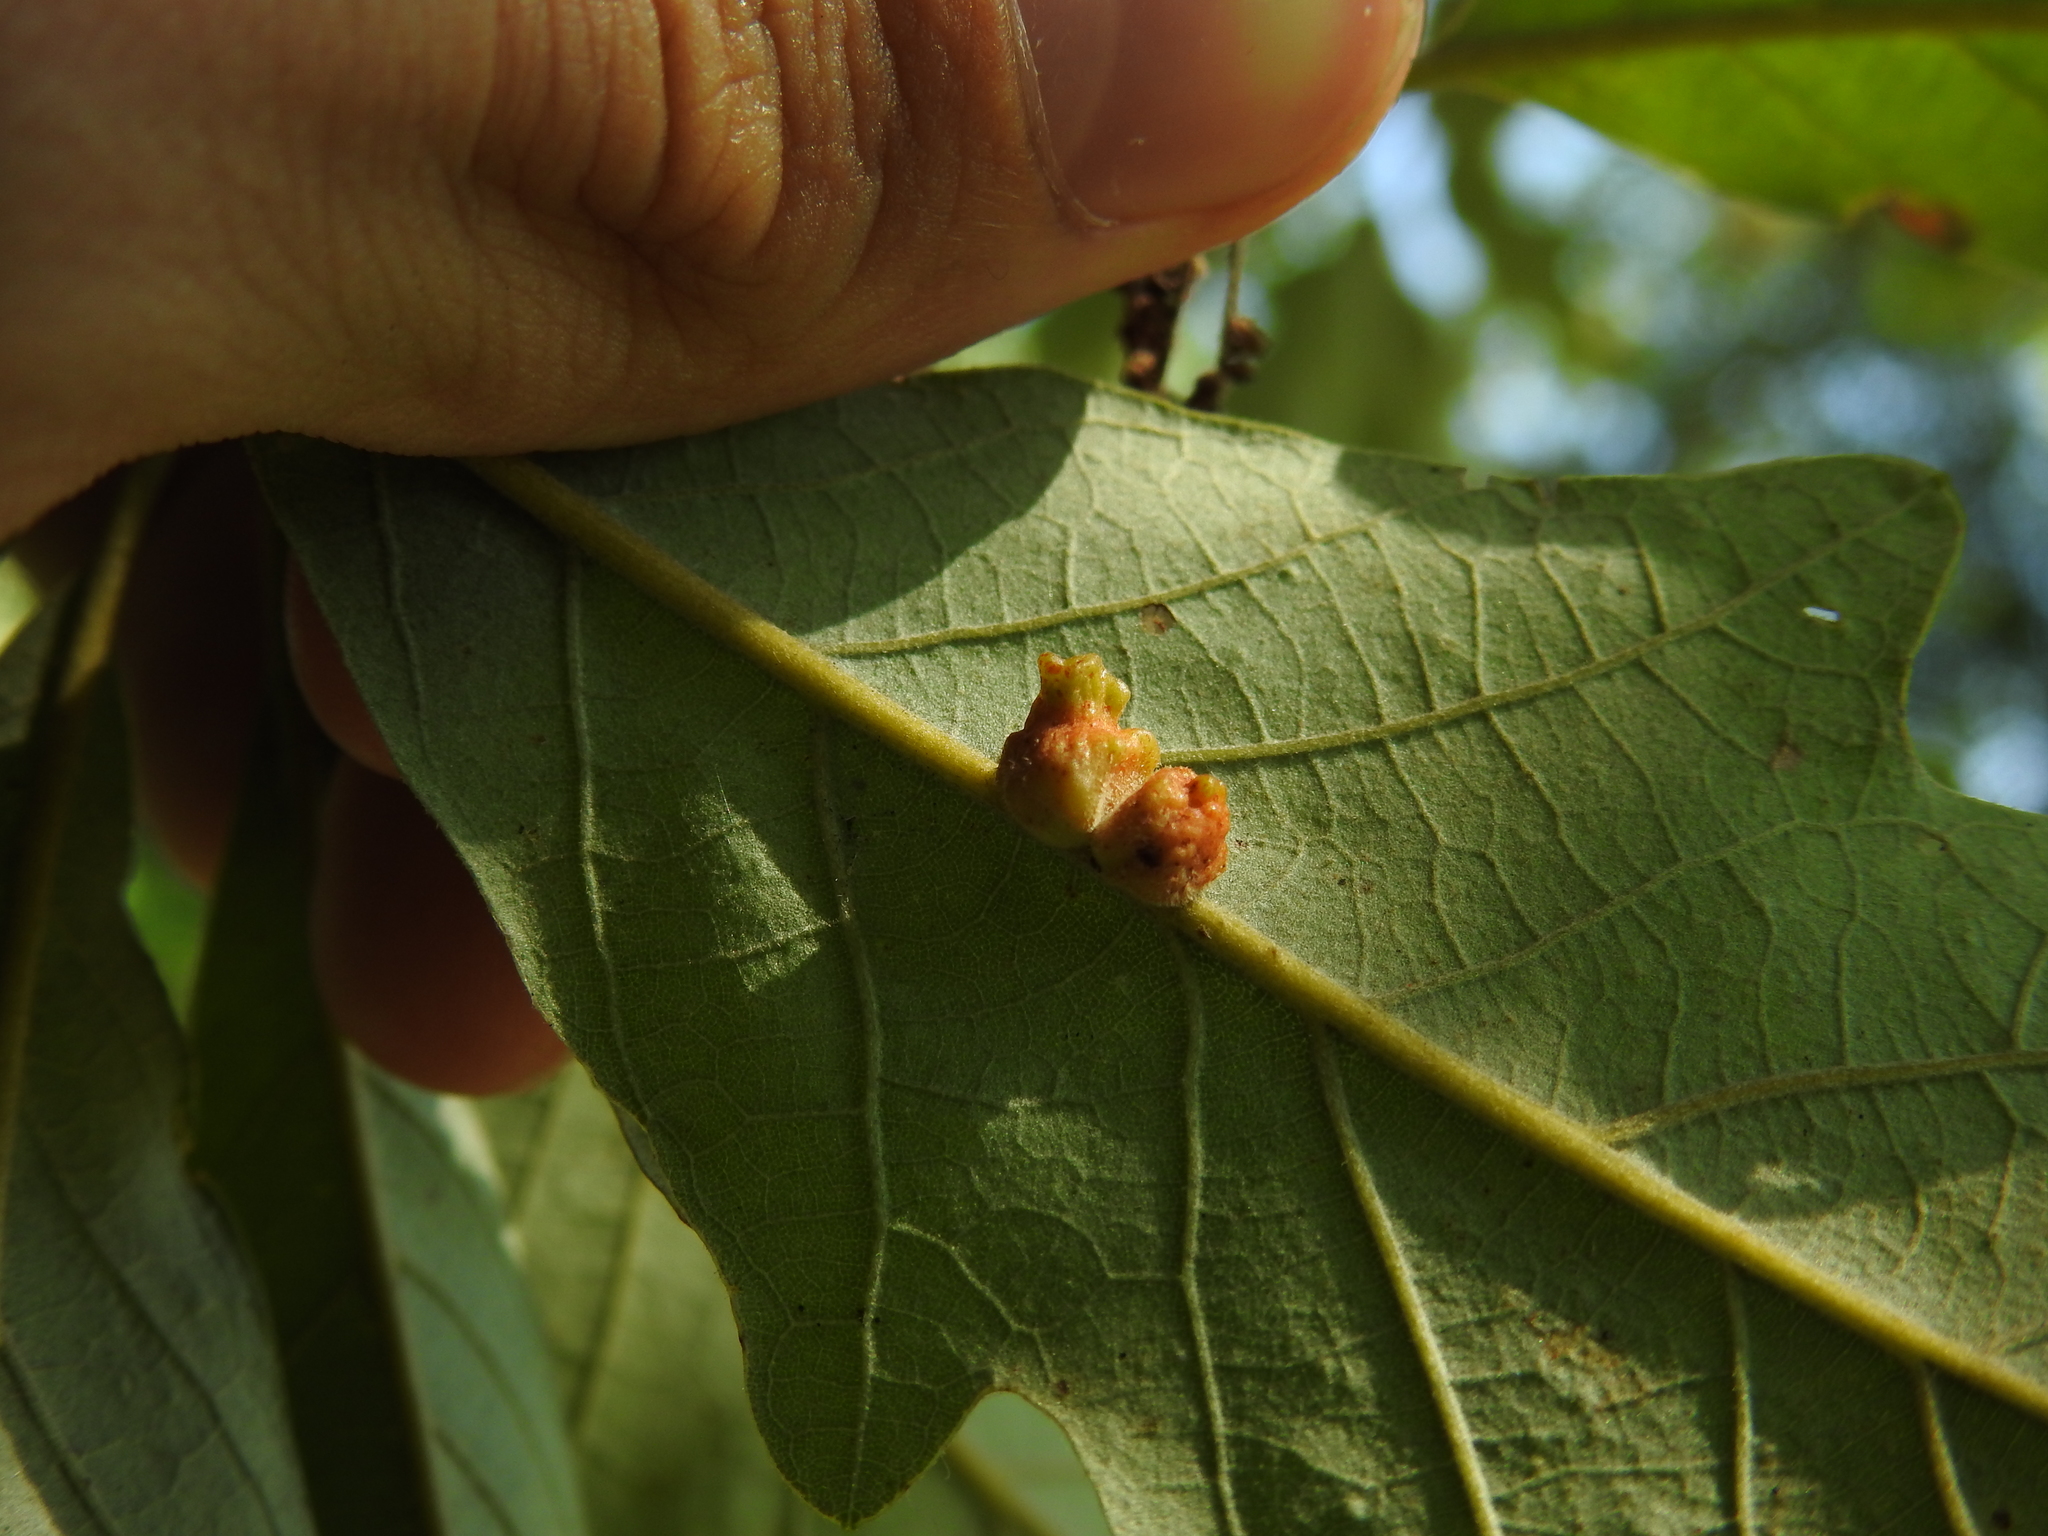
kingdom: Animalia
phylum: Arthropoda
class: Insecta
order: Hymenoptera
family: Cynipidae
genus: Andricus
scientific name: Andricus
